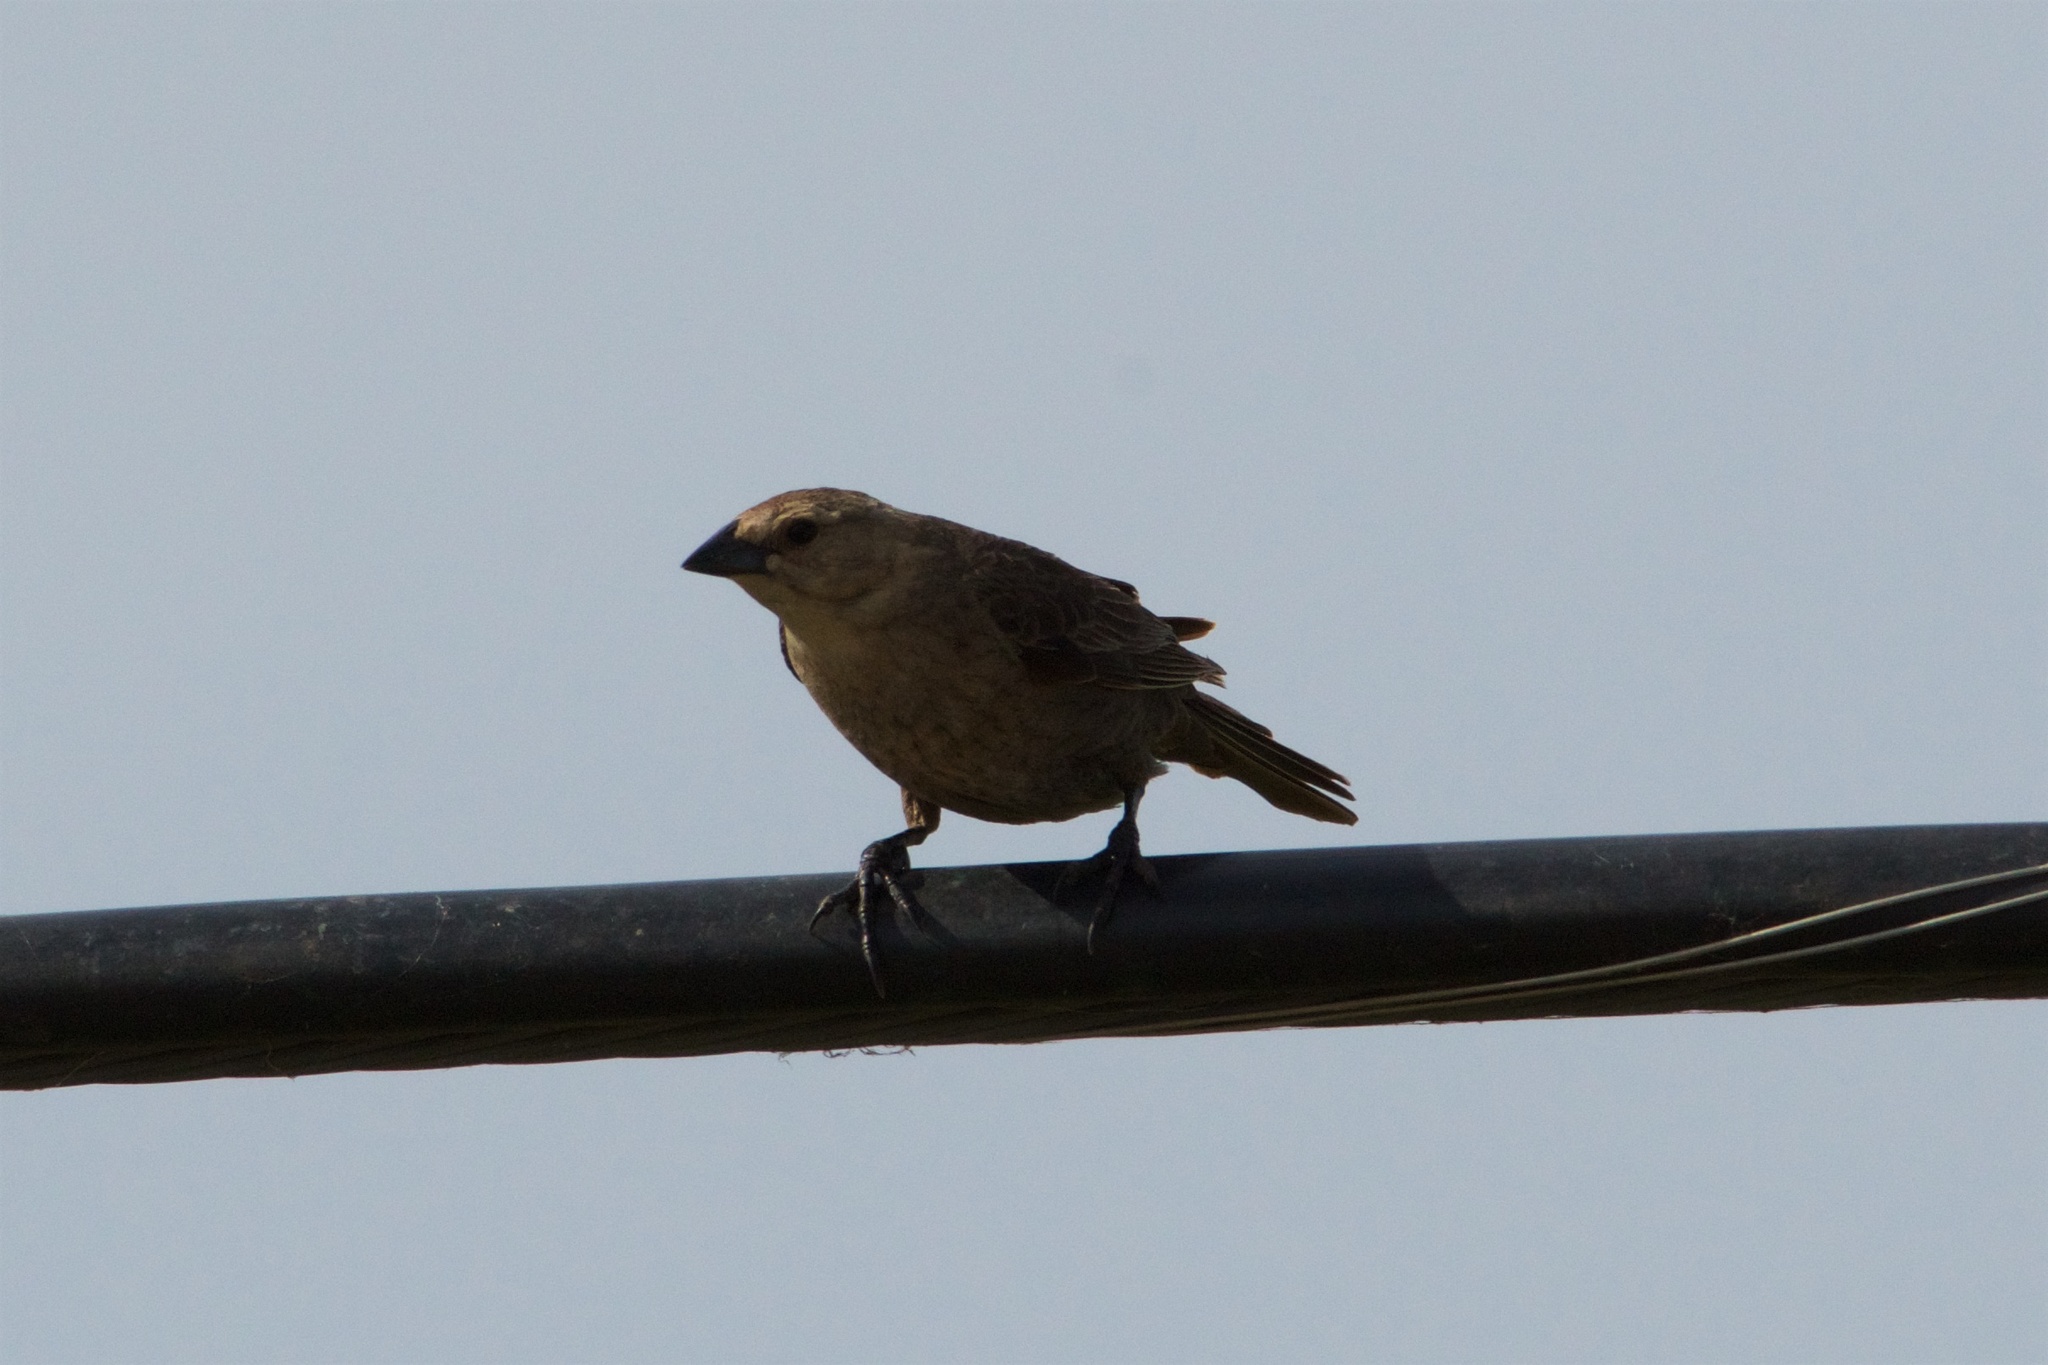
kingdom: Animalia
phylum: Chordata
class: Aves
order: Passeriformes
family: Icteridae
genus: Molothrus
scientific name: Molothrus ater
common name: Brown-headed cowbird
